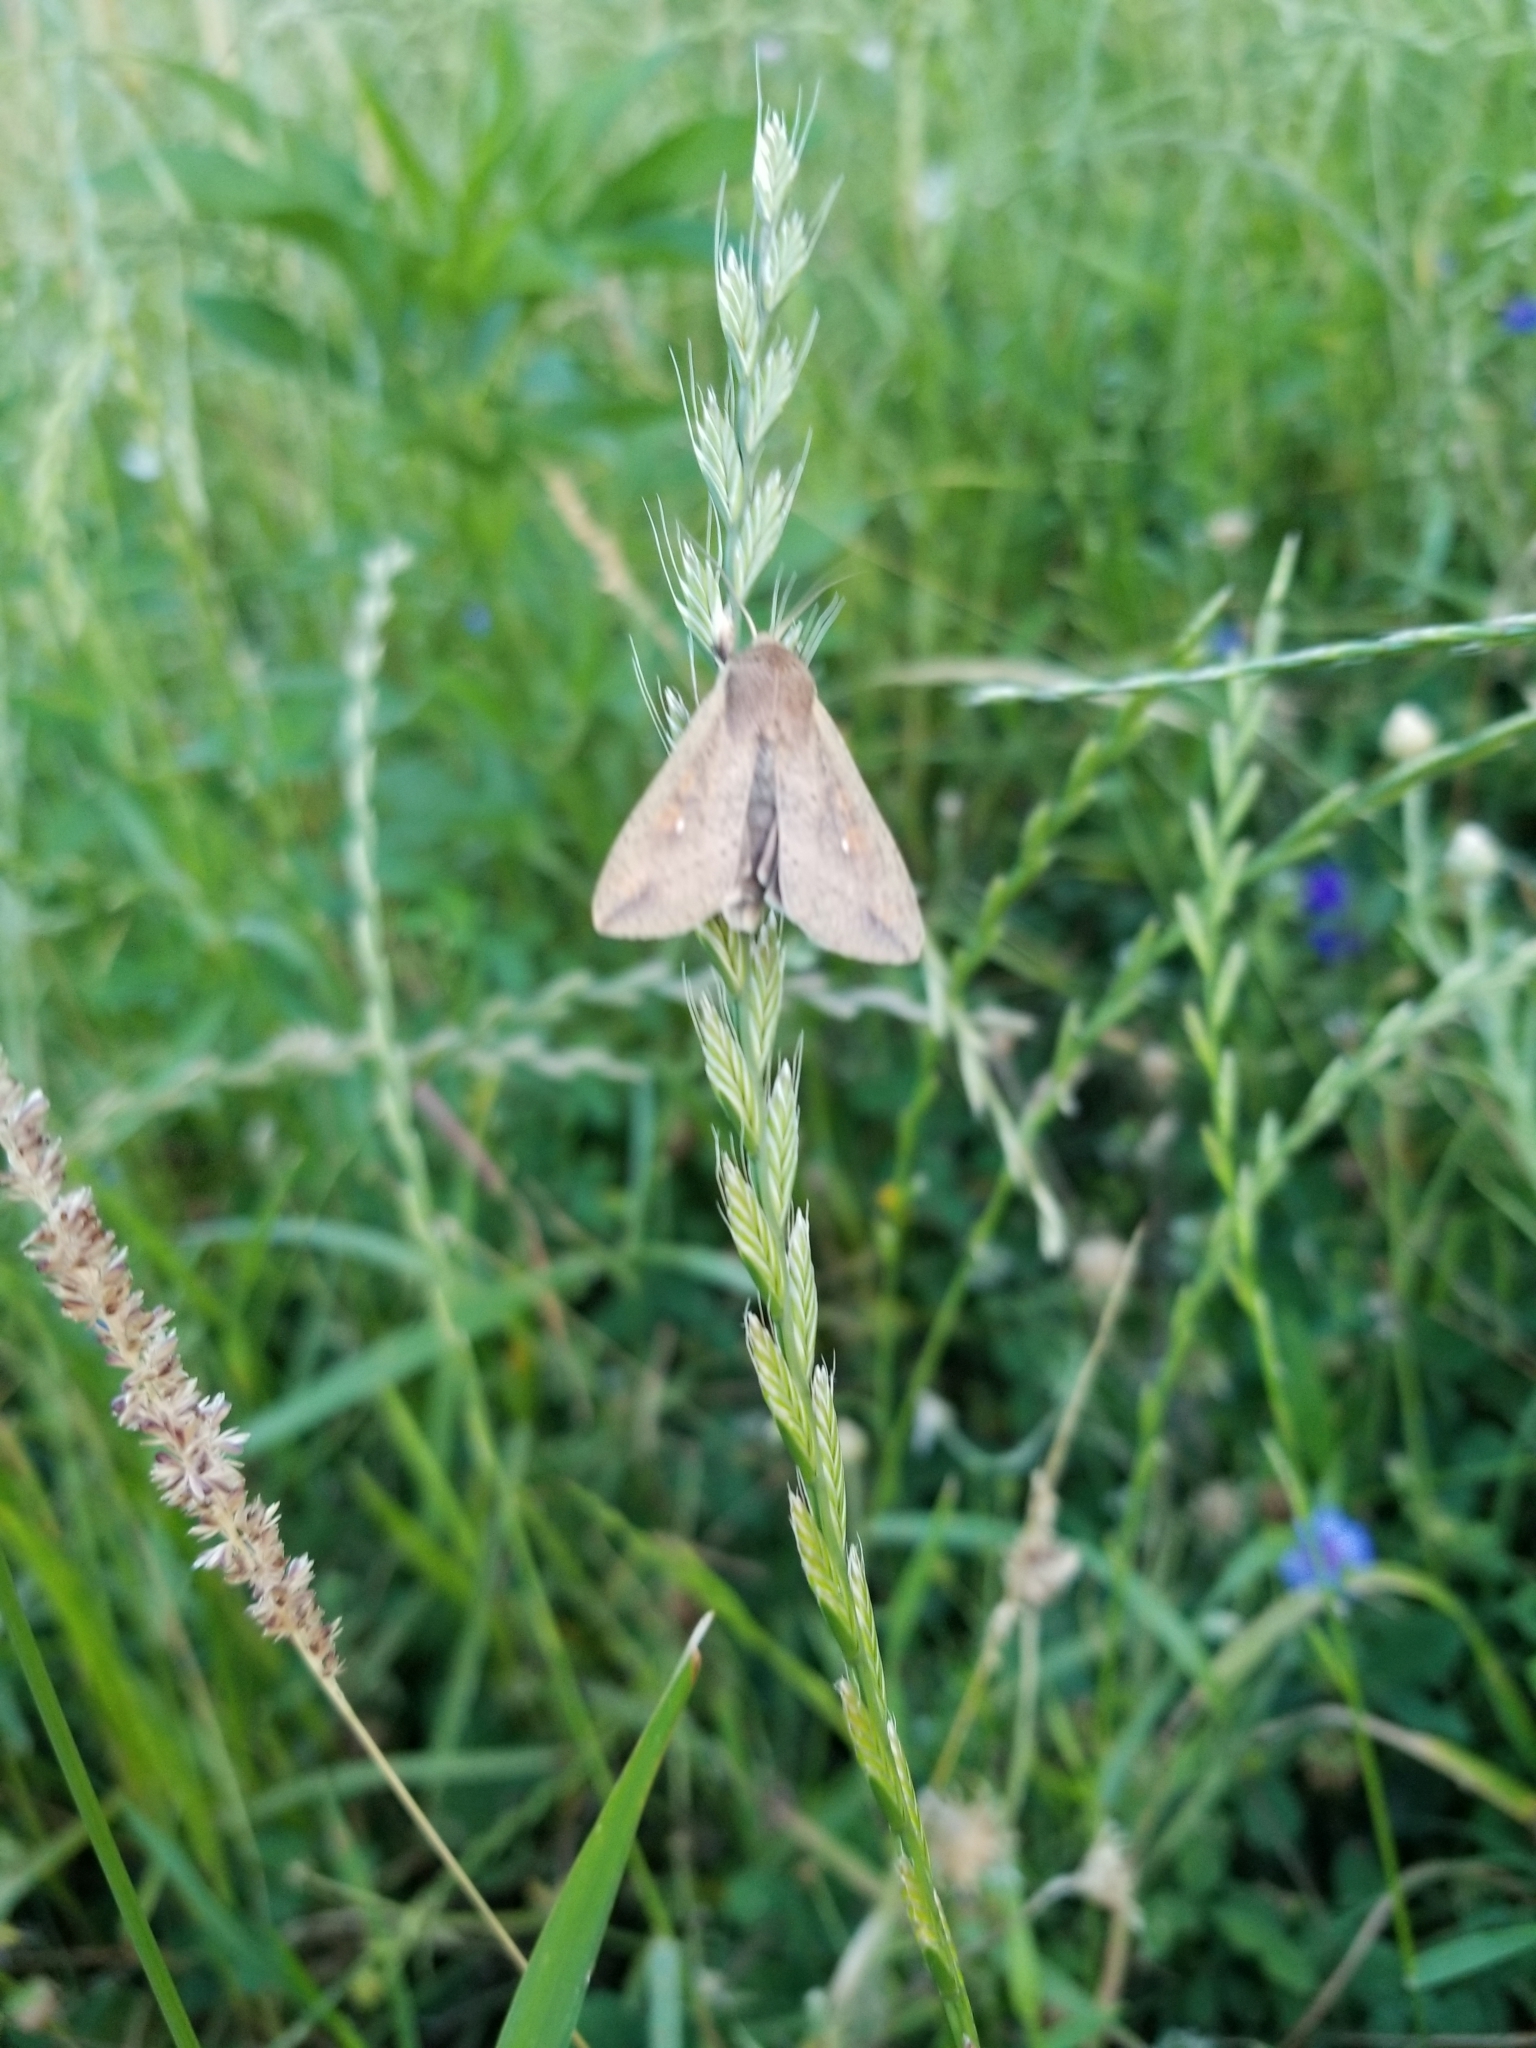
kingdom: Animalia
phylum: Arthropoda
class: Insecta
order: Lepidoptera
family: Noctuidae
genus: Mythimna
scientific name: Mythimna unipuncta
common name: White-speck
